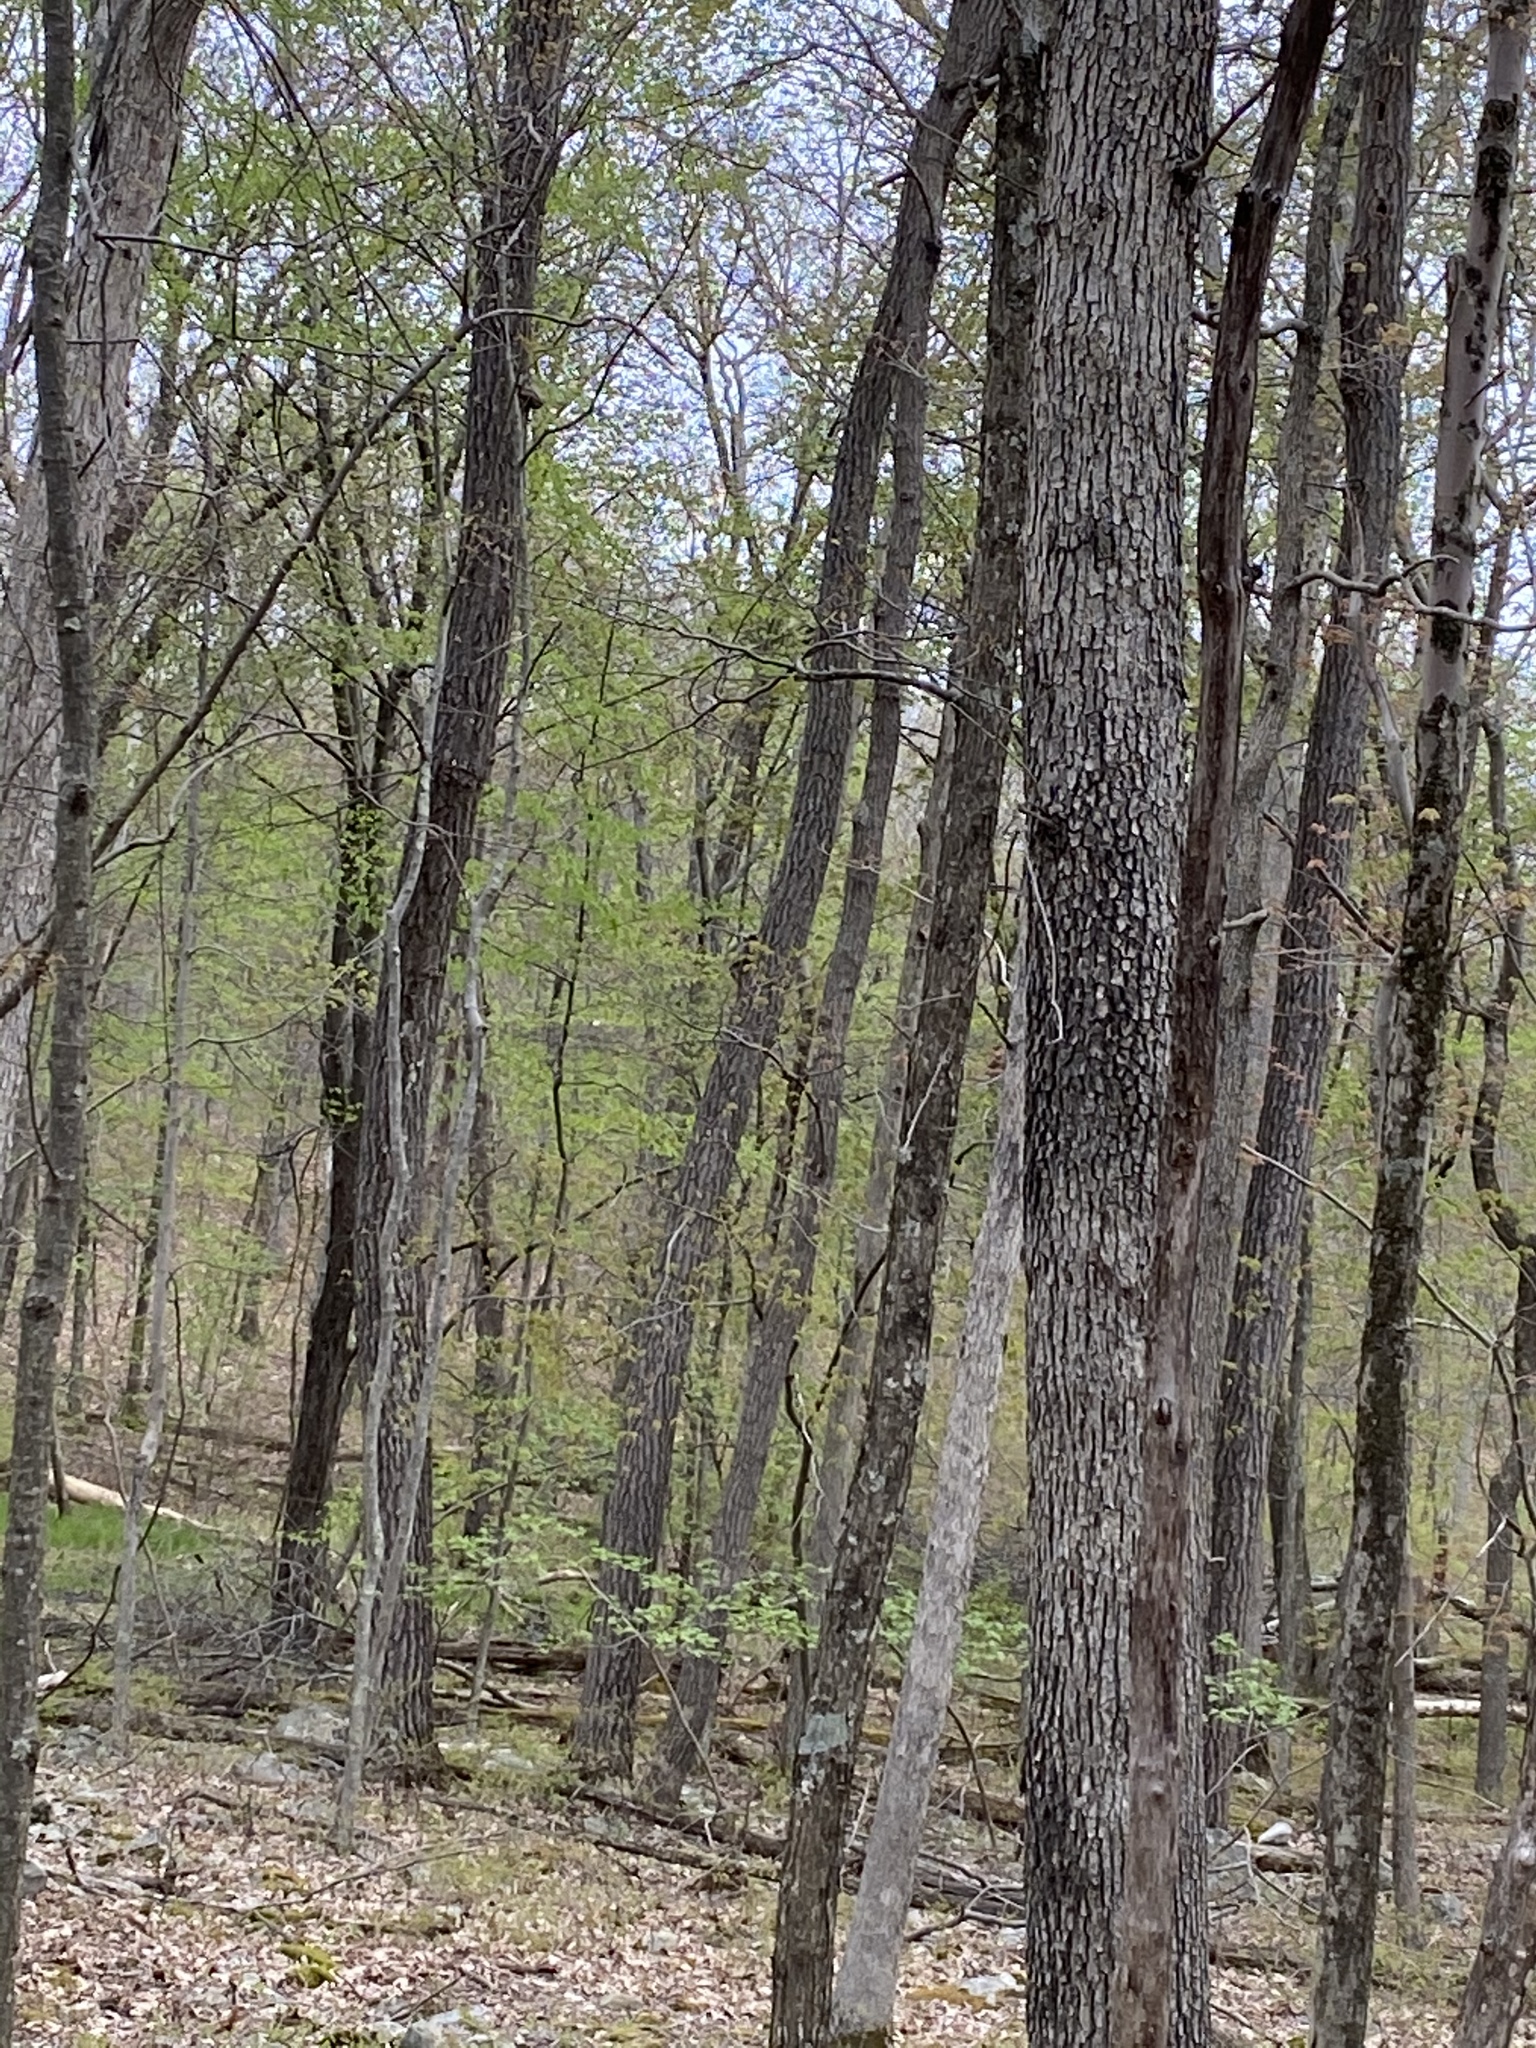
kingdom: Animalia
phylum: Chordata
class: Mammalia
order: Rodentia
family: Erethizontidae
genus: Erethizon
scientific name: Erethizon dorsatus
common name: North american porcupine
